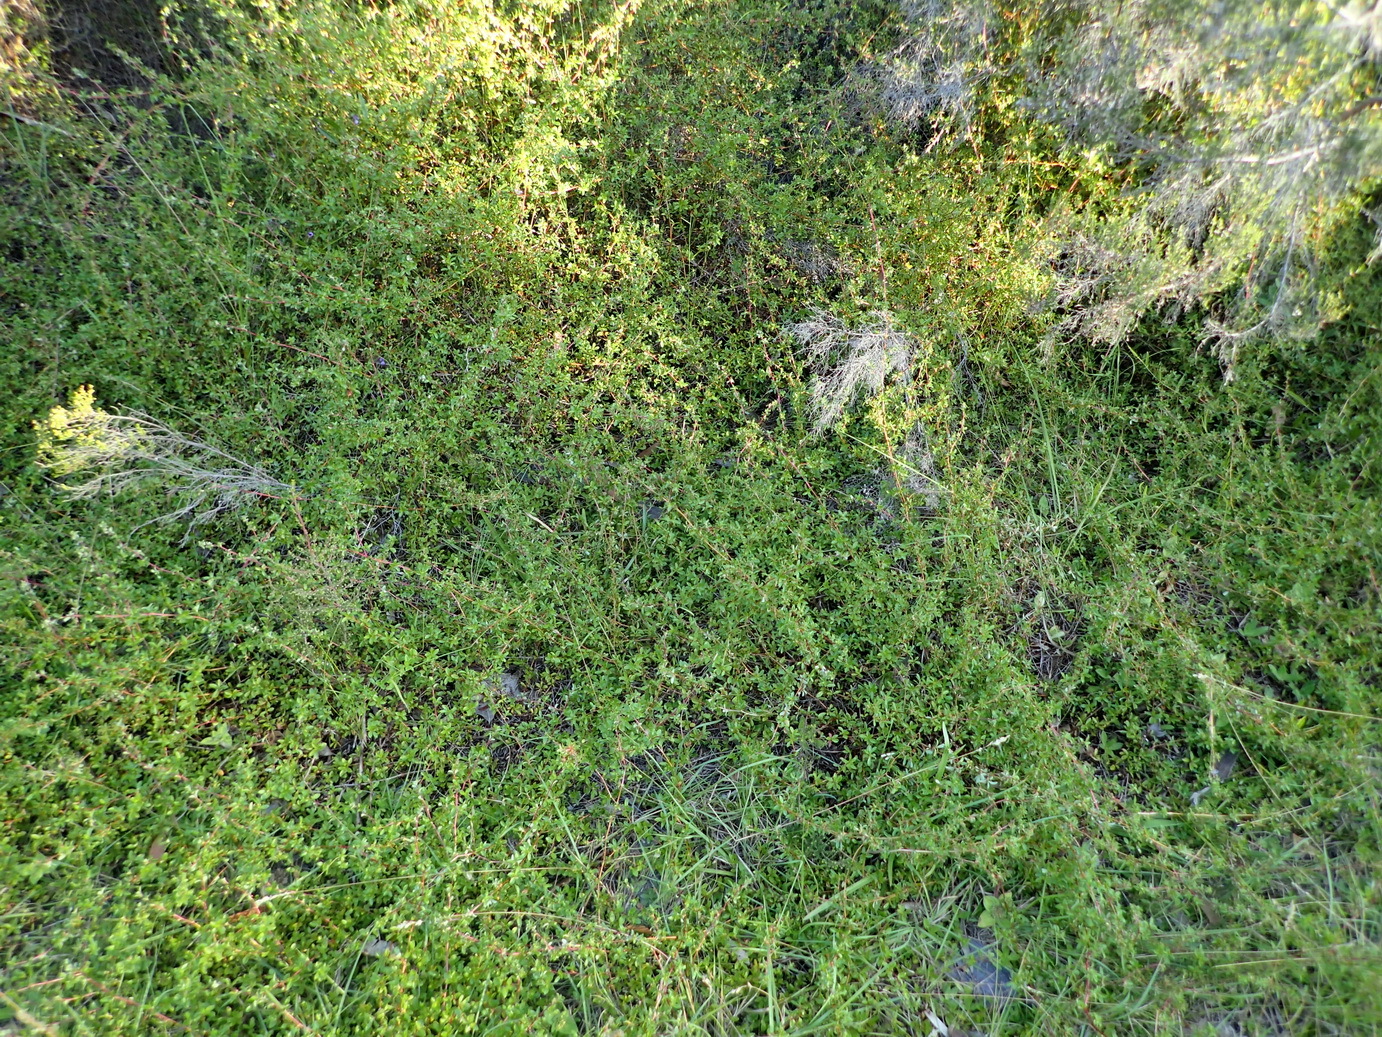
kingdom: Plantae
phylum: Tracheophyta
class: Magnoliopsida
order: Rosales
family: Rosaceae
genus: Cliffortia
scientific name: Cliffortia ferruginea
